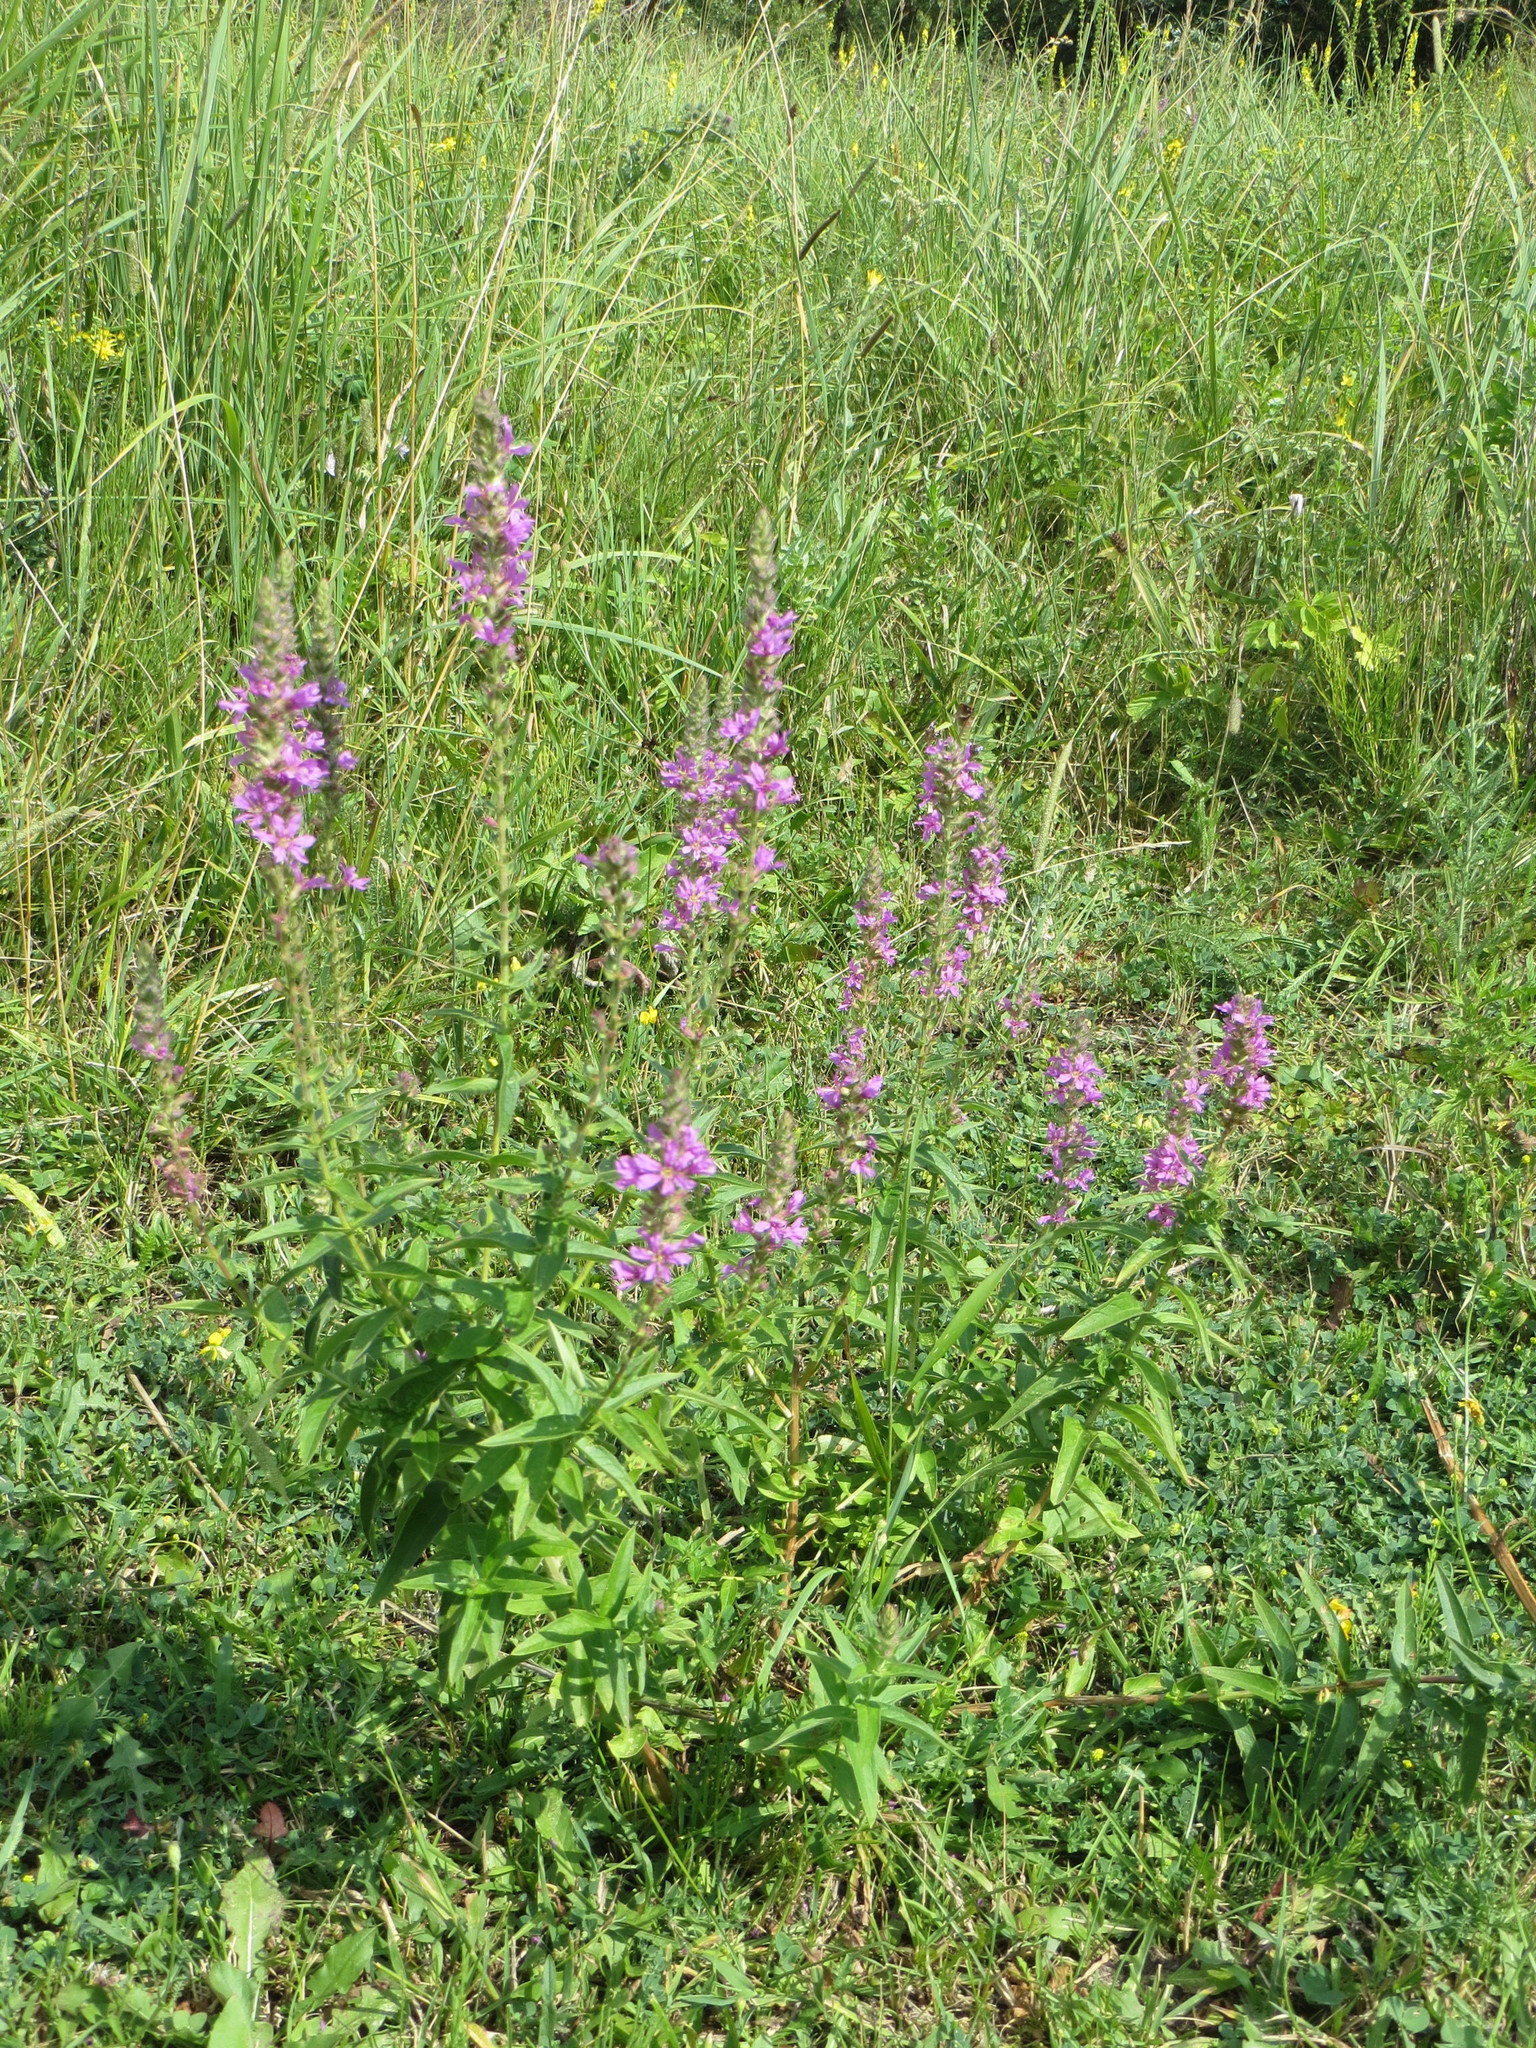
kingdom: Plantae
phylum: Tracheophyta
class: Magnoliopsida
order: Myrtales
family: Lythraceae
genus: Lythrum
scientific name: Lythrum salicaria
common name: Purple loosestrife
